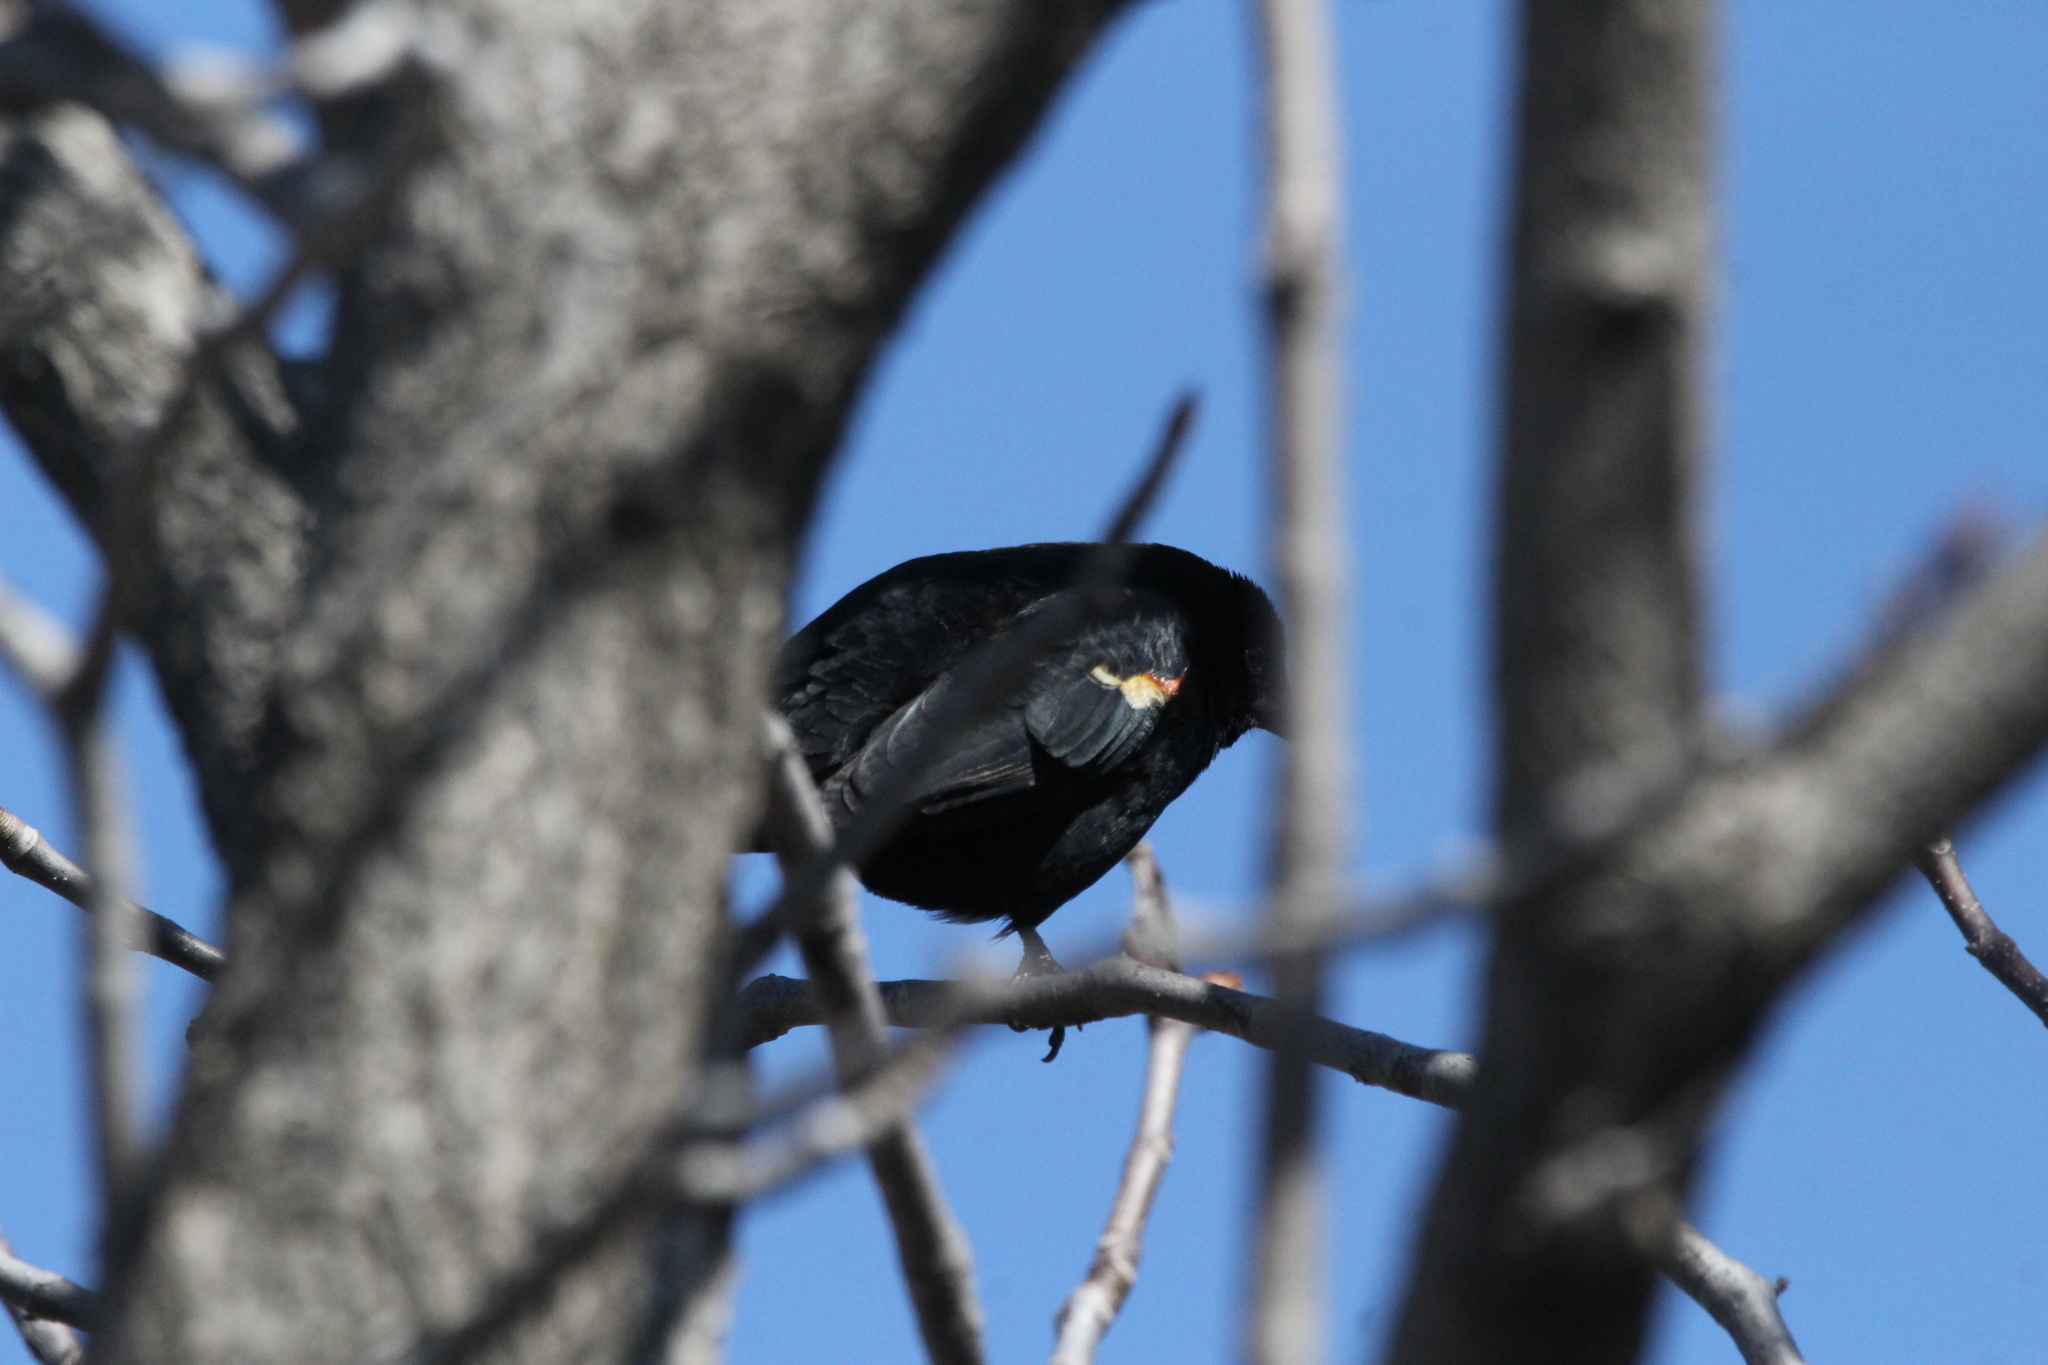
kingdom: Animalia
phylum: Chordata
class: Aves
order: Passeriformes
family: Icteridae
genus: Agelaius
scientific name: Agelaius phoeniceus
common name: Red-winged blackbird
